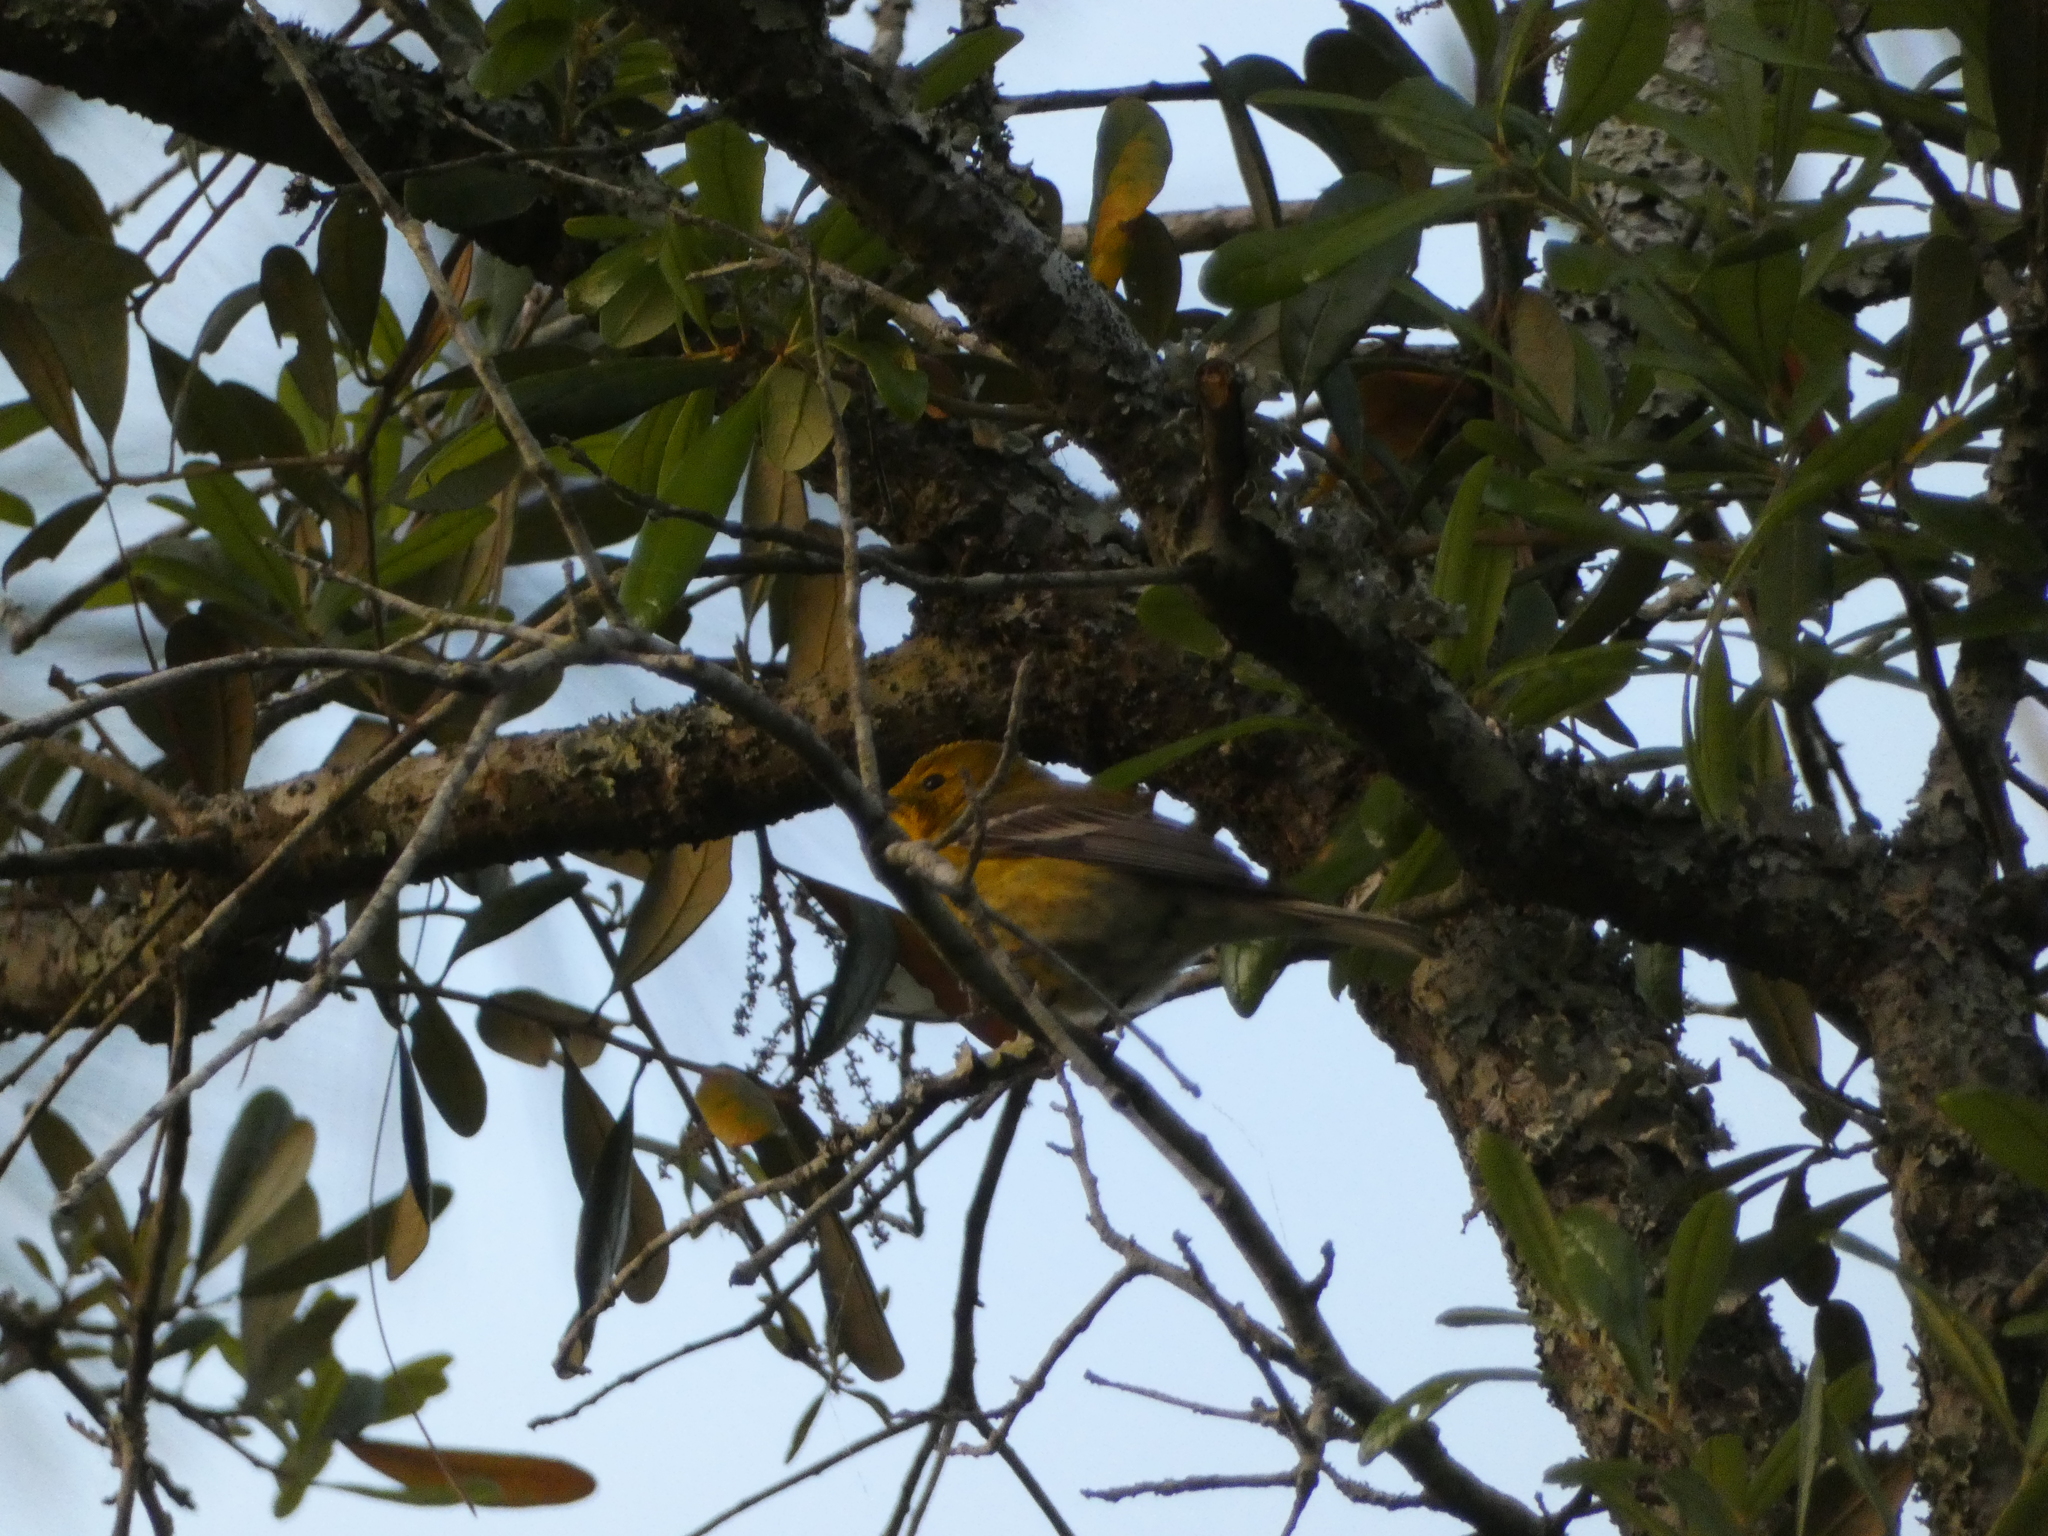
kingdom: Animalia
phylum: Chordata
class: Aves
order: Passeriformes
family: Parulidae
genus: Setophaga
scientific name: Setophaga pinus
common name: Pine warbler
